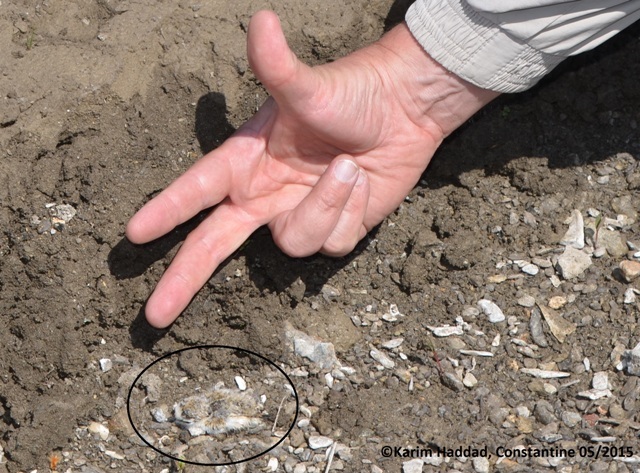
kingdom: Animalia
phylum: Chordata
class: Aves
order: Charadriiformes
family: Charadriidae
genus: Charadrius
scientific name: Charadrius dubius
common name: Little ringed plover
